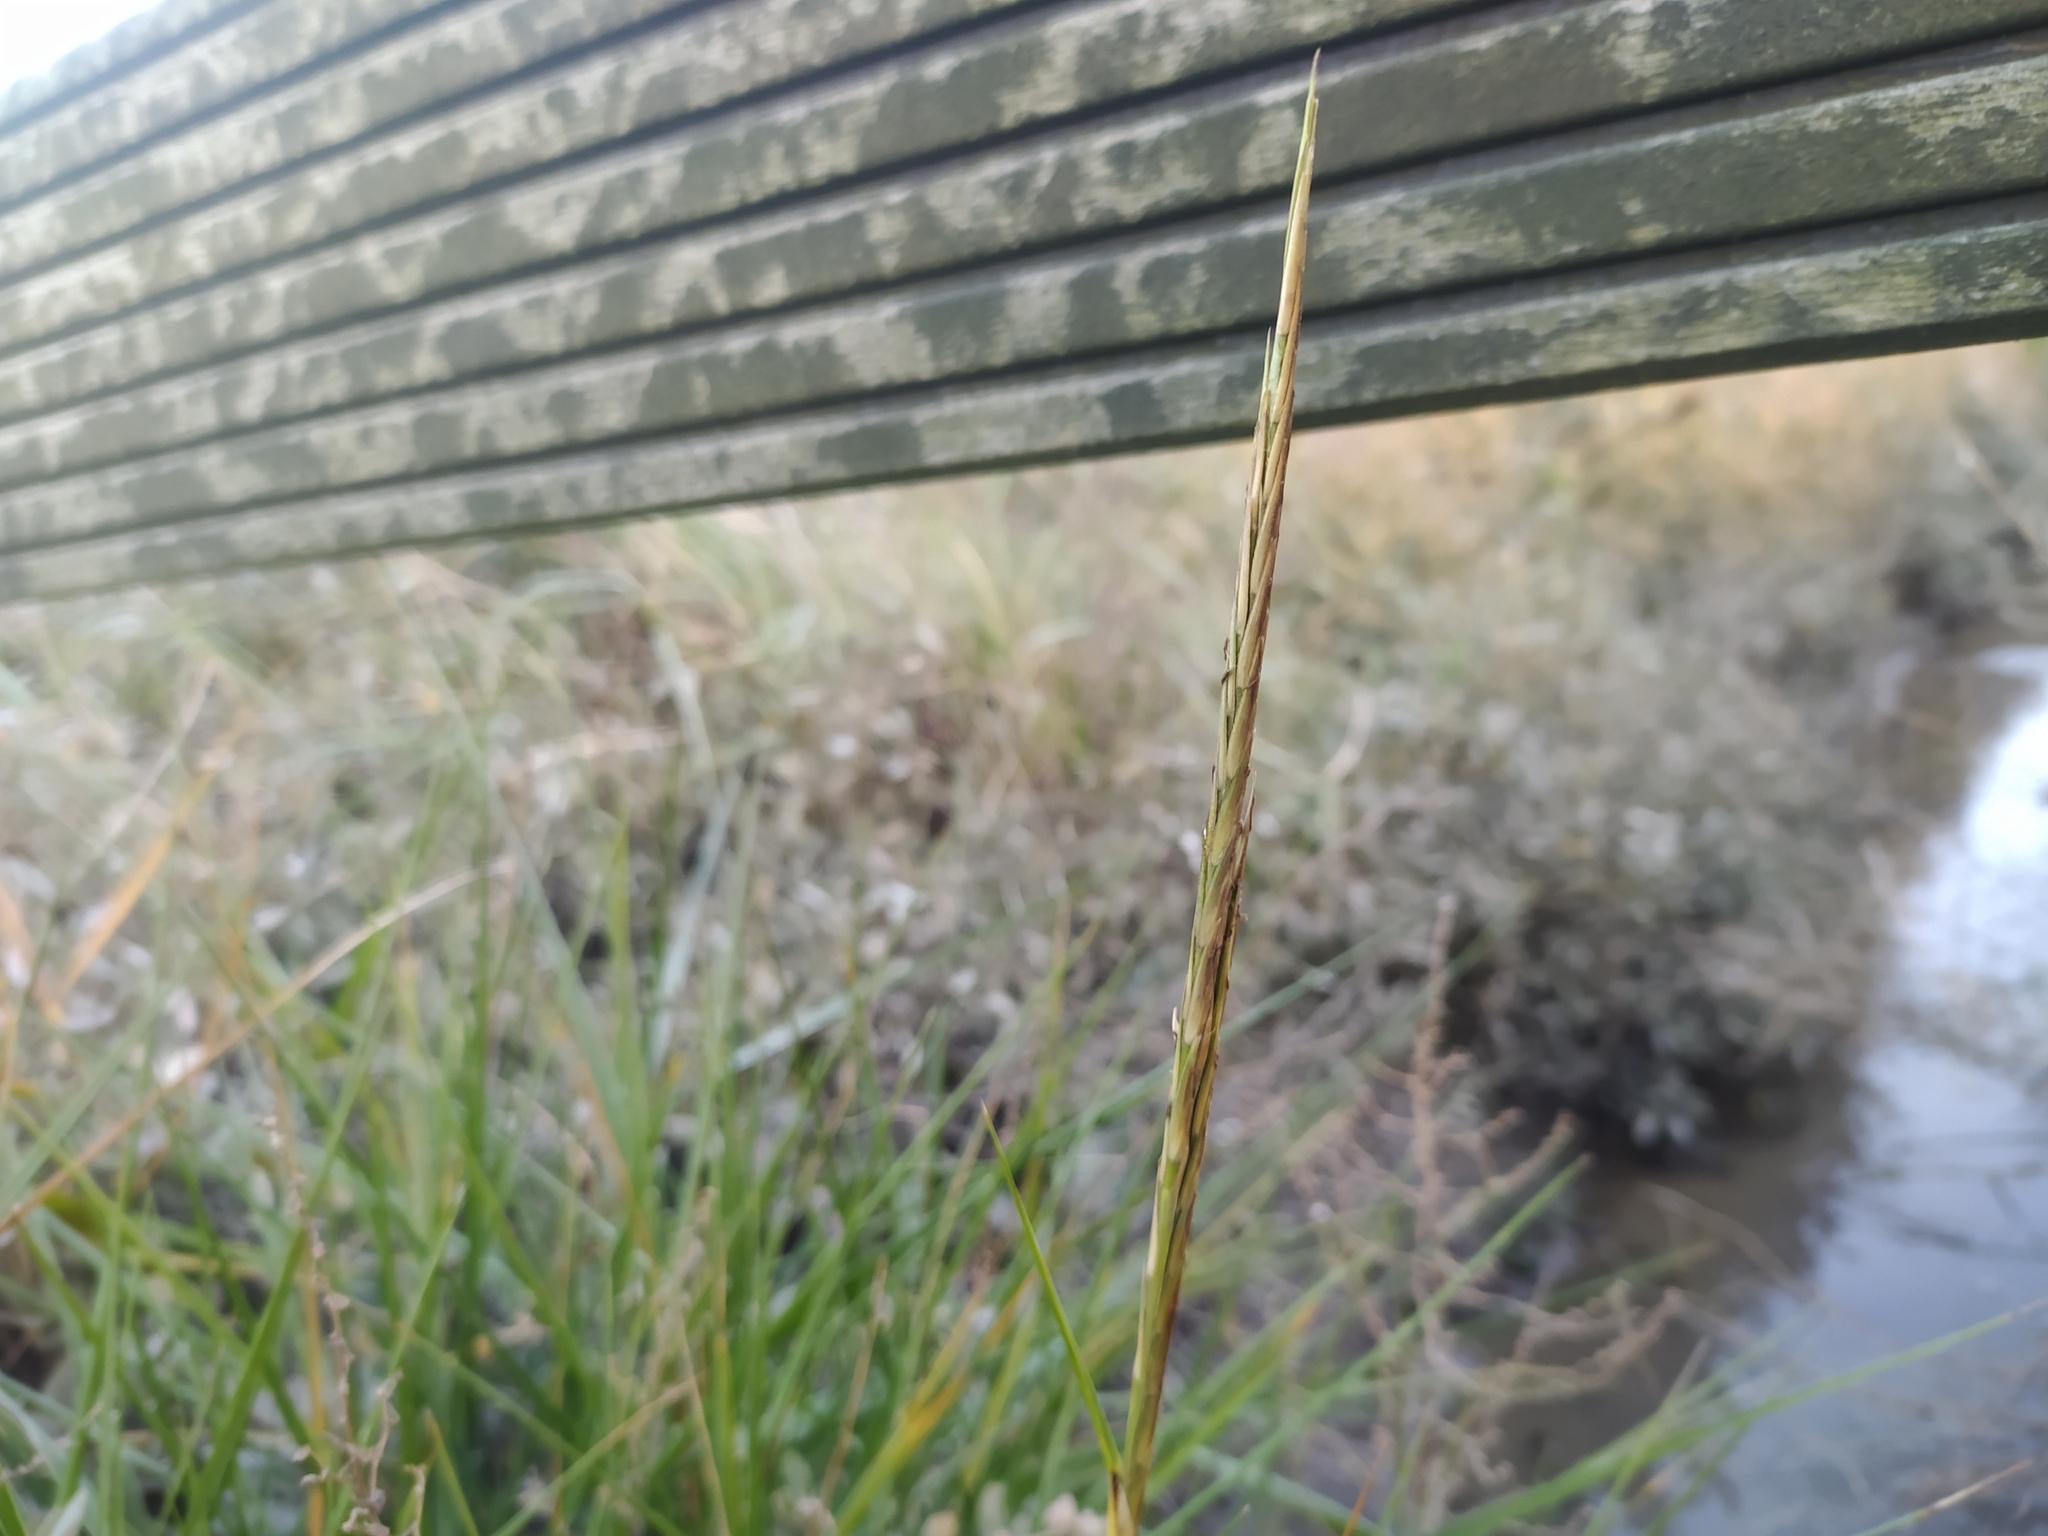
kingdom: Plantae
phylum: Tracheophyta
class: Liliopsida
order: Poales
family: Poaceae
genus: Sporobolus
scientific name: Sporobolus anglicus
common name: English cordgrass
